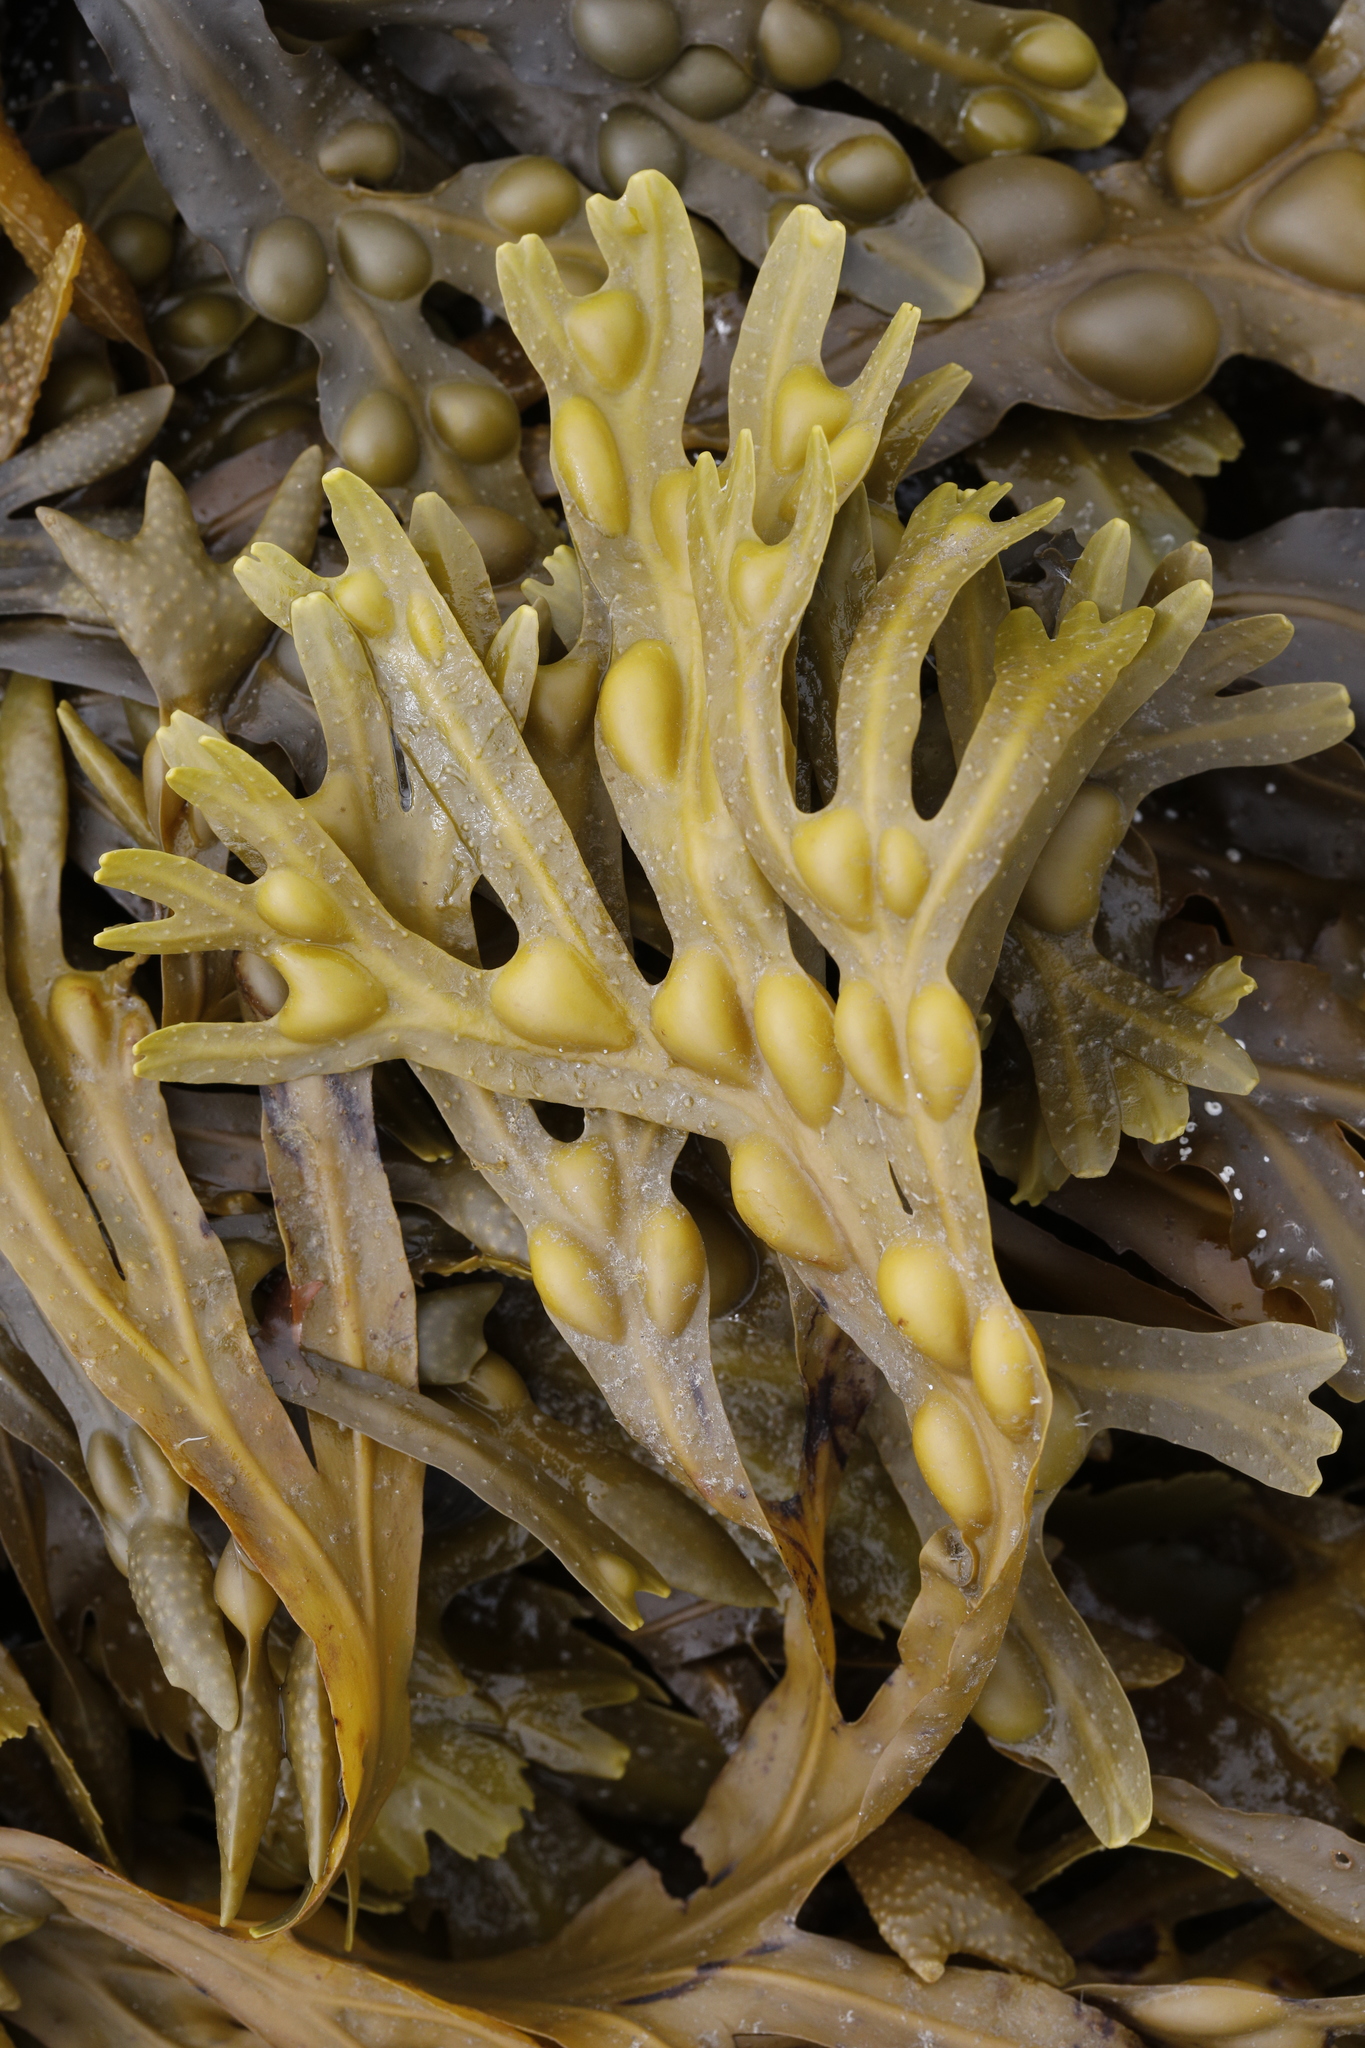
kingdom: Chromista
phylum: Ochrophyta
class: Phaeophyceae
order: Fucales
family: Fucaceae
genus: Fucus
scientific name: Fucus vesiculosus
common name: Bladder wrack
